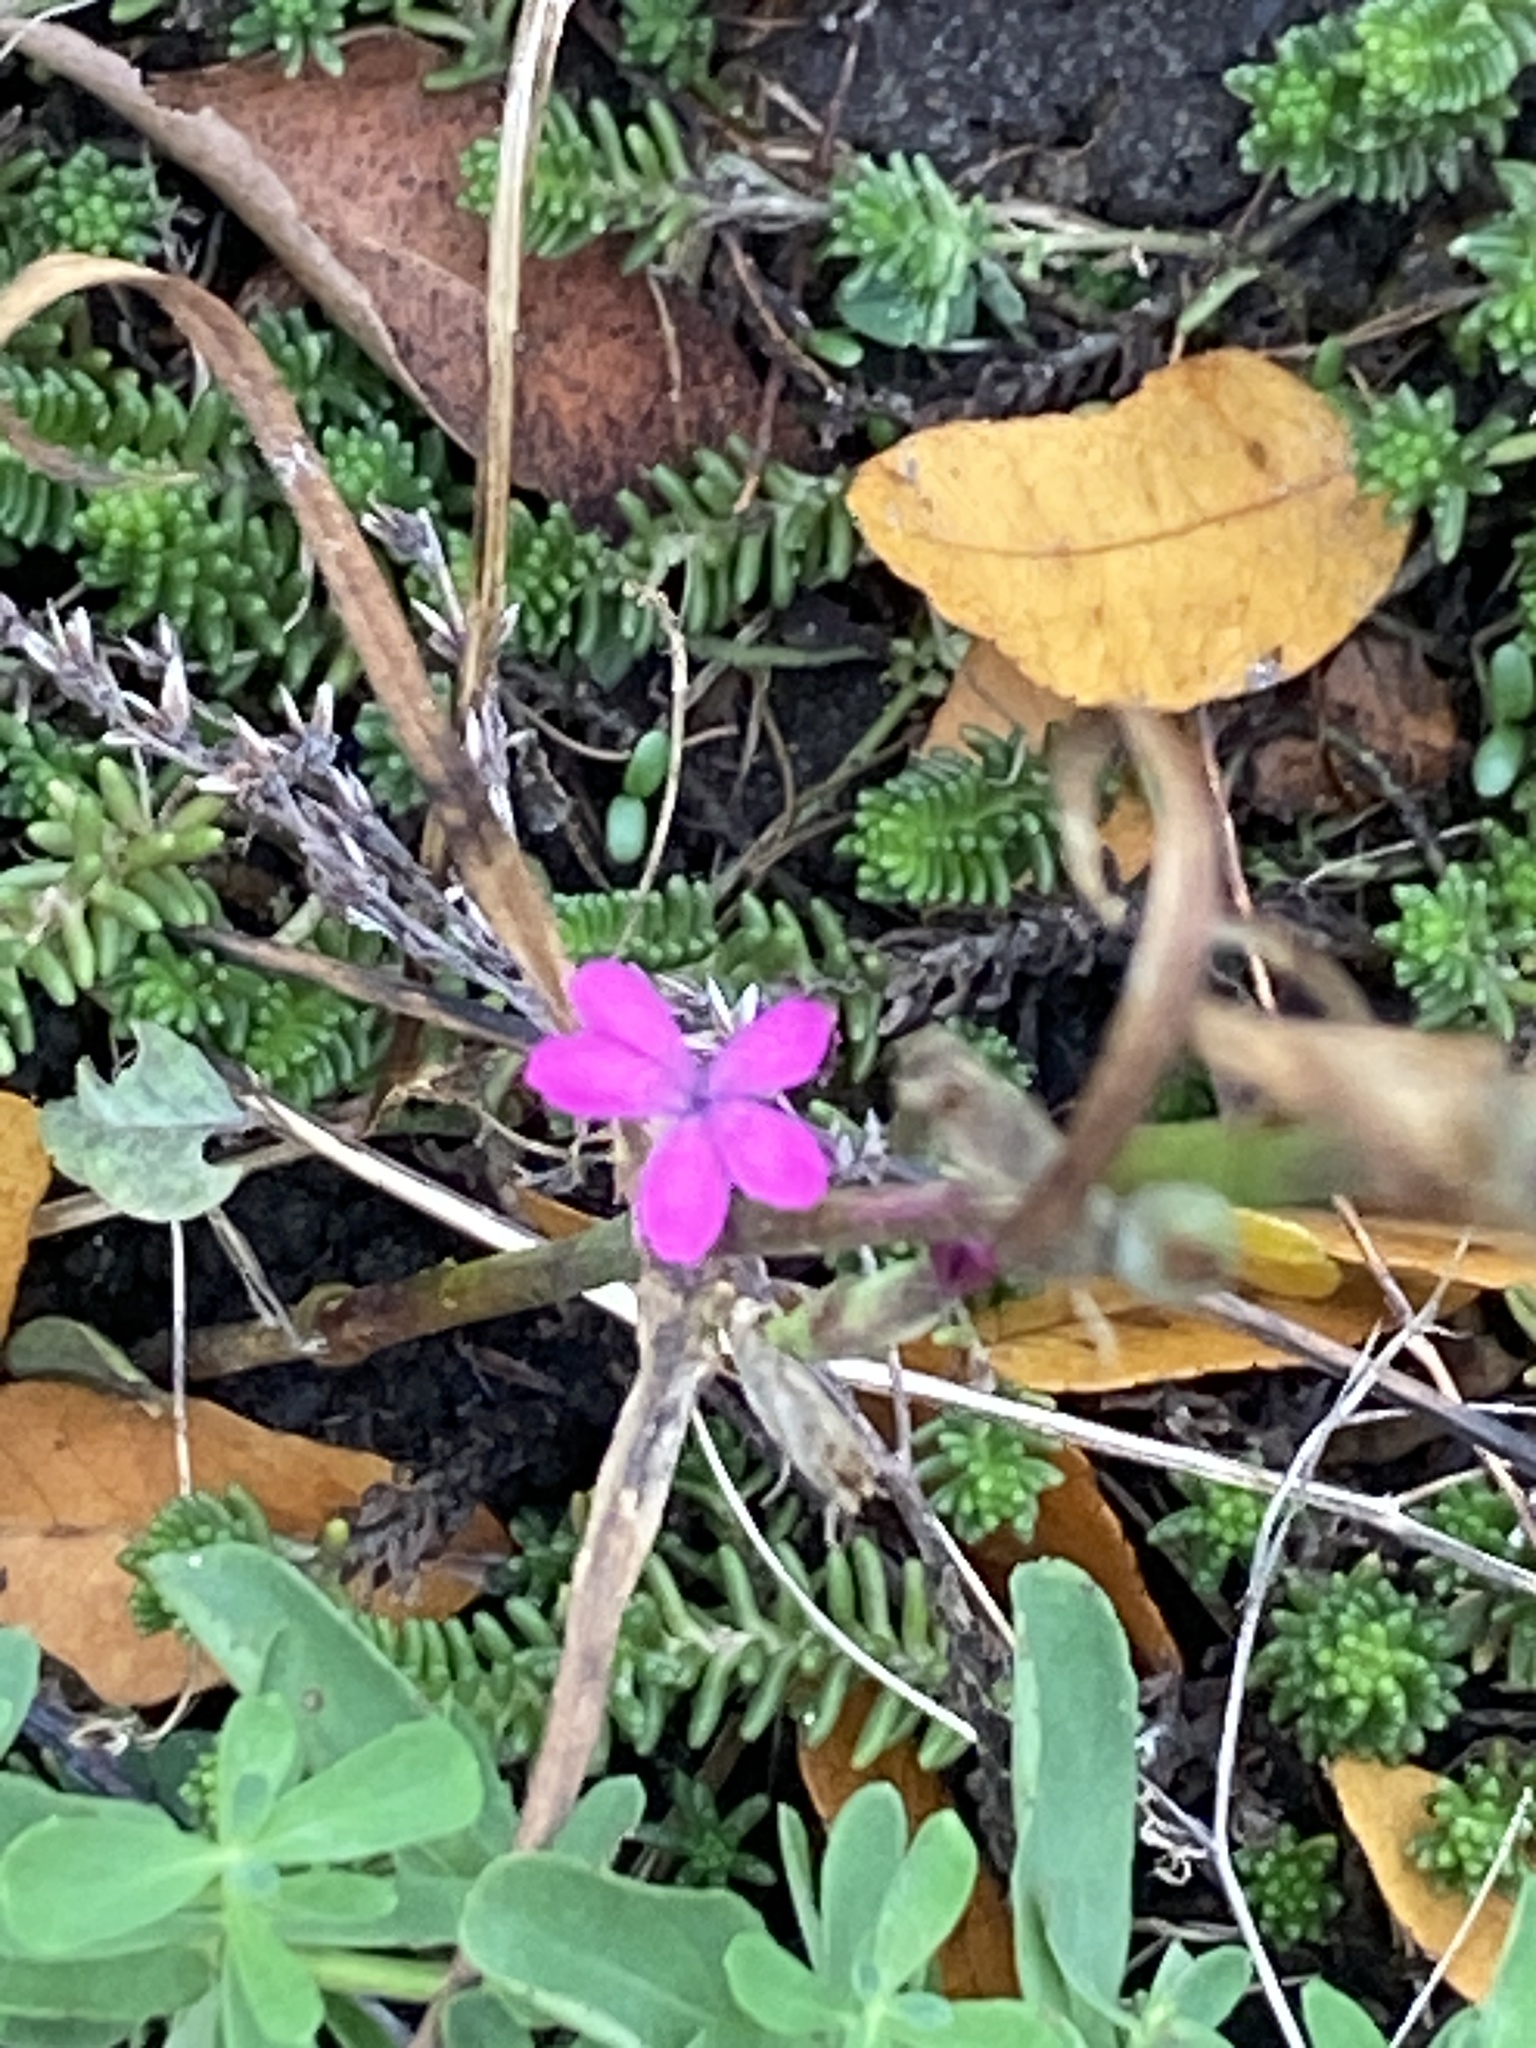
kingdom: Plantae
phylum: Tracheophyta
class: Magnoliopsida
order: Caryophyllales
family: Caryophyllaceae
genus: Dianthus
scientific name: Dianthus armeria
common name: Deptford pink
